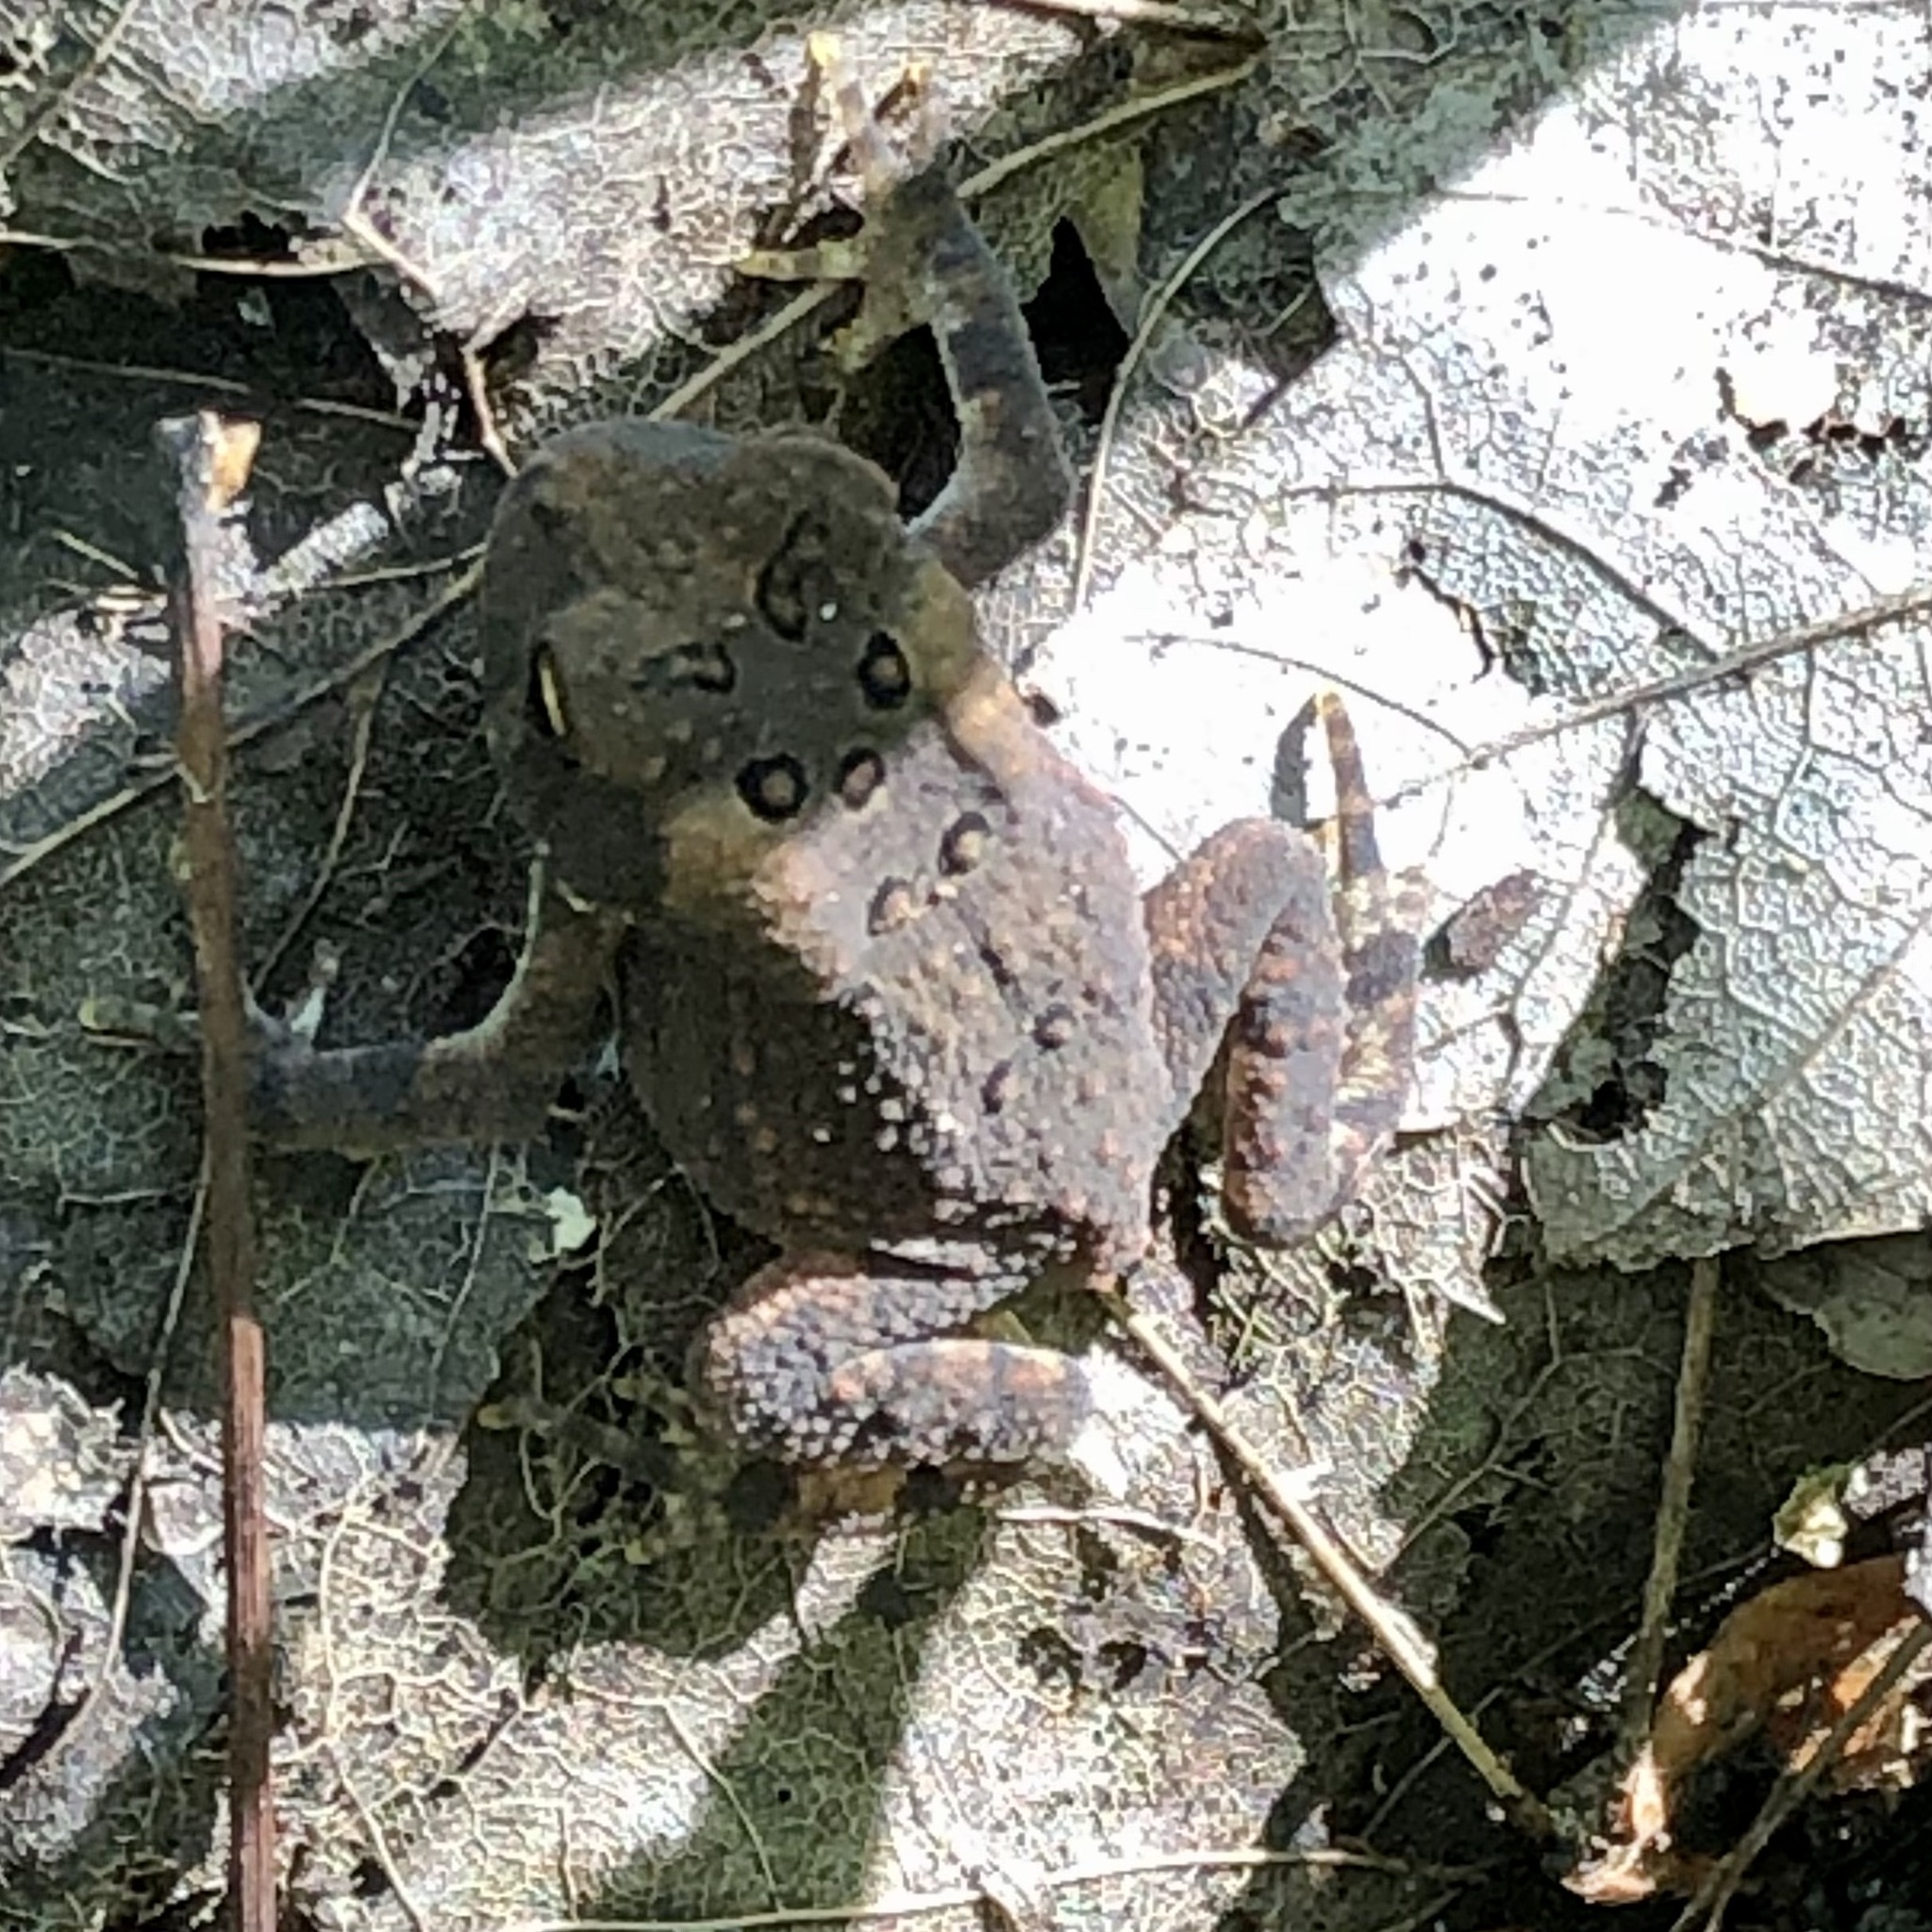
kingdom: Animalia
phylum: Chordata
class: Amphibia
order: Anura
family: Bufonidae
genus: Anaxyrus
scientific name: Anaxyrus americanus
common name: American toad
